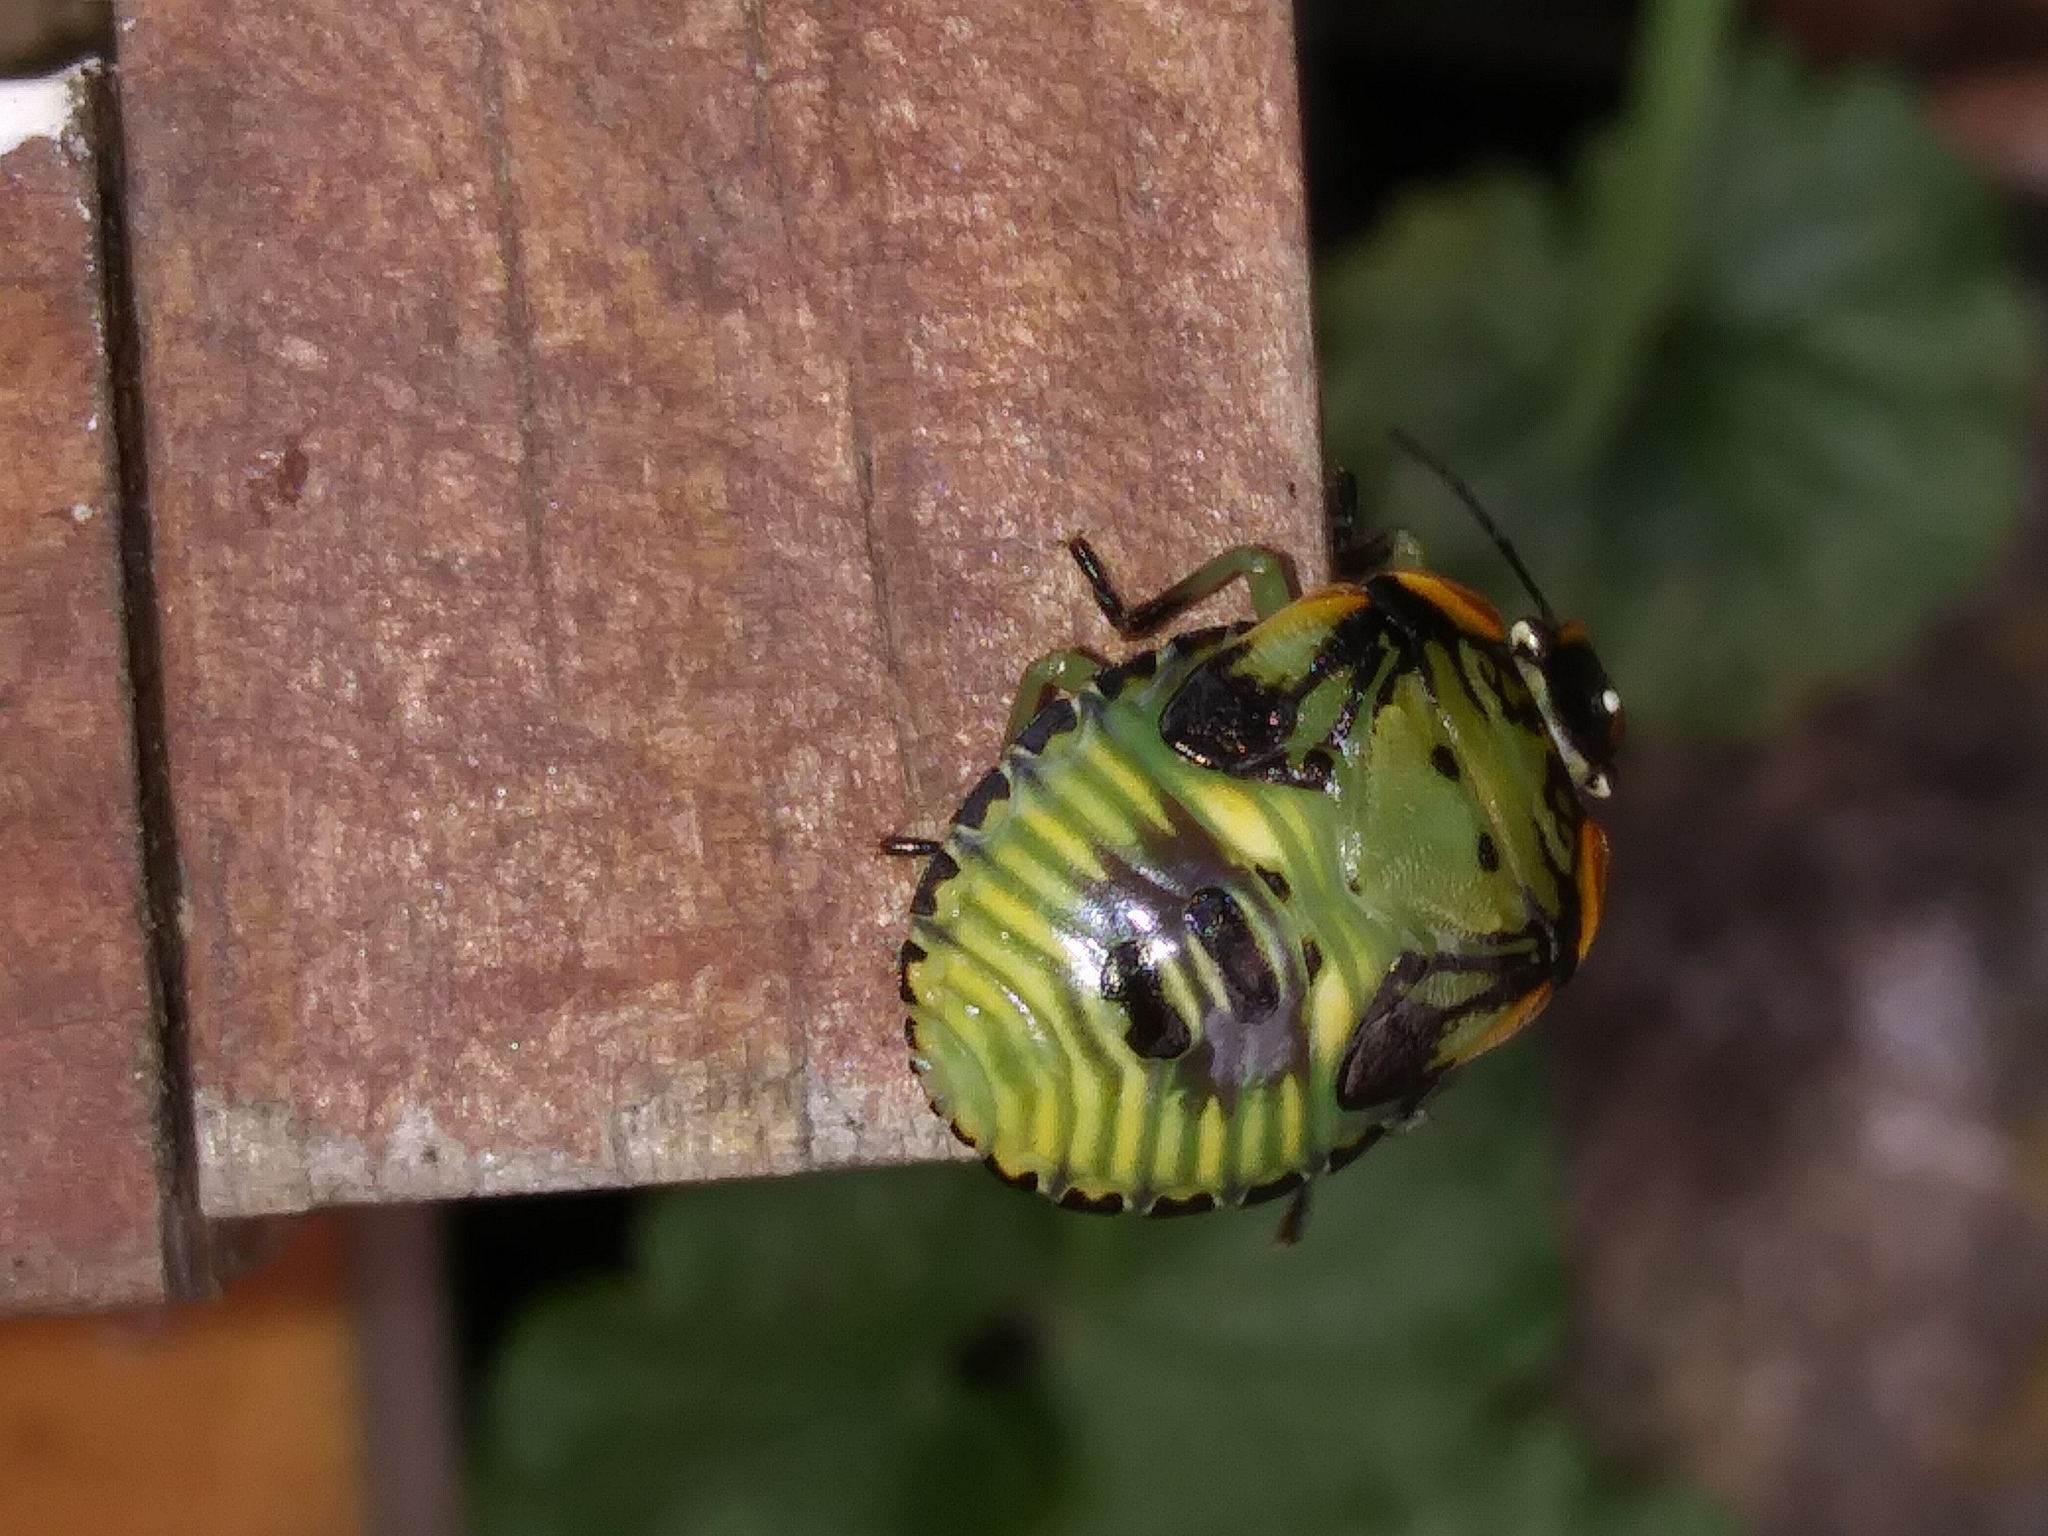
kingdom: Animalia
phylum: Arthropoda
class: Insecta
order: Hemiptera
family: Pentatomidae
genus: Chinavia
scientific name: Chinavia hilaris
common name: Green stink bug
